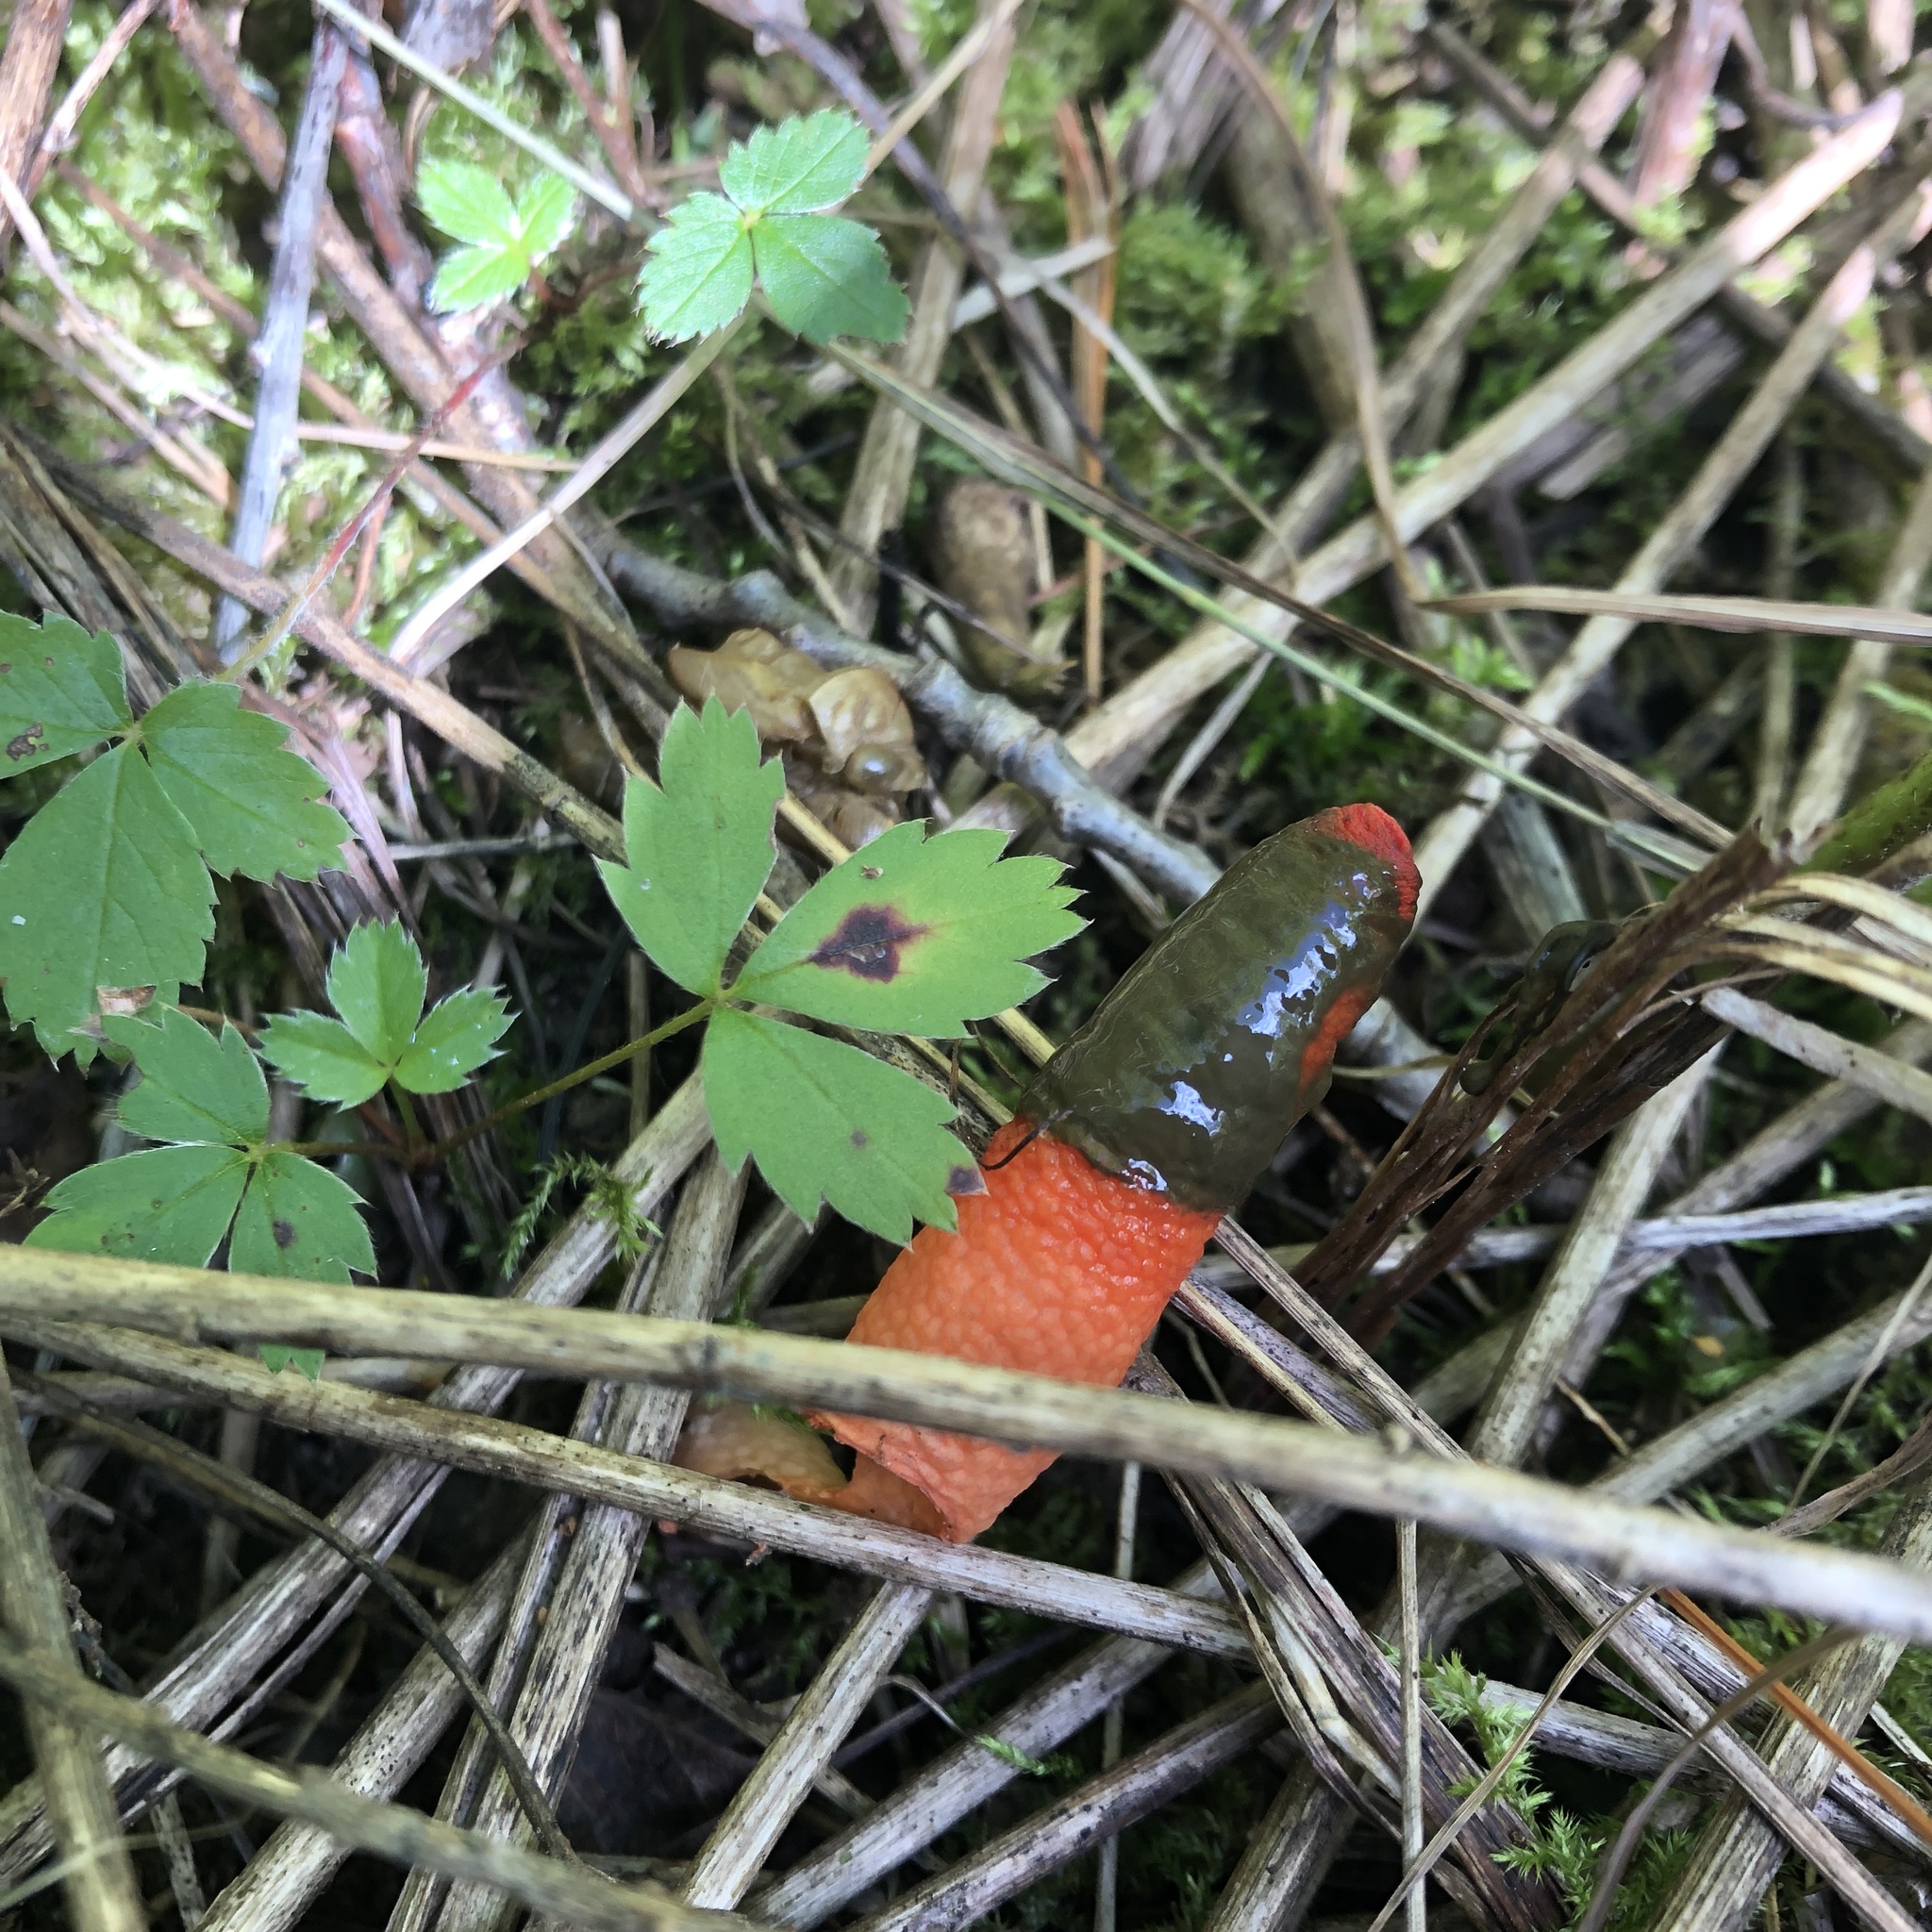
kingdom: Fungi
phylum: Basidiomycota
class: Agaricomycetes
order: Phallales
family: Phallaceae
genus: Mutinus
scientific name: Mutinus elegans
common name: Devil's dipstick
